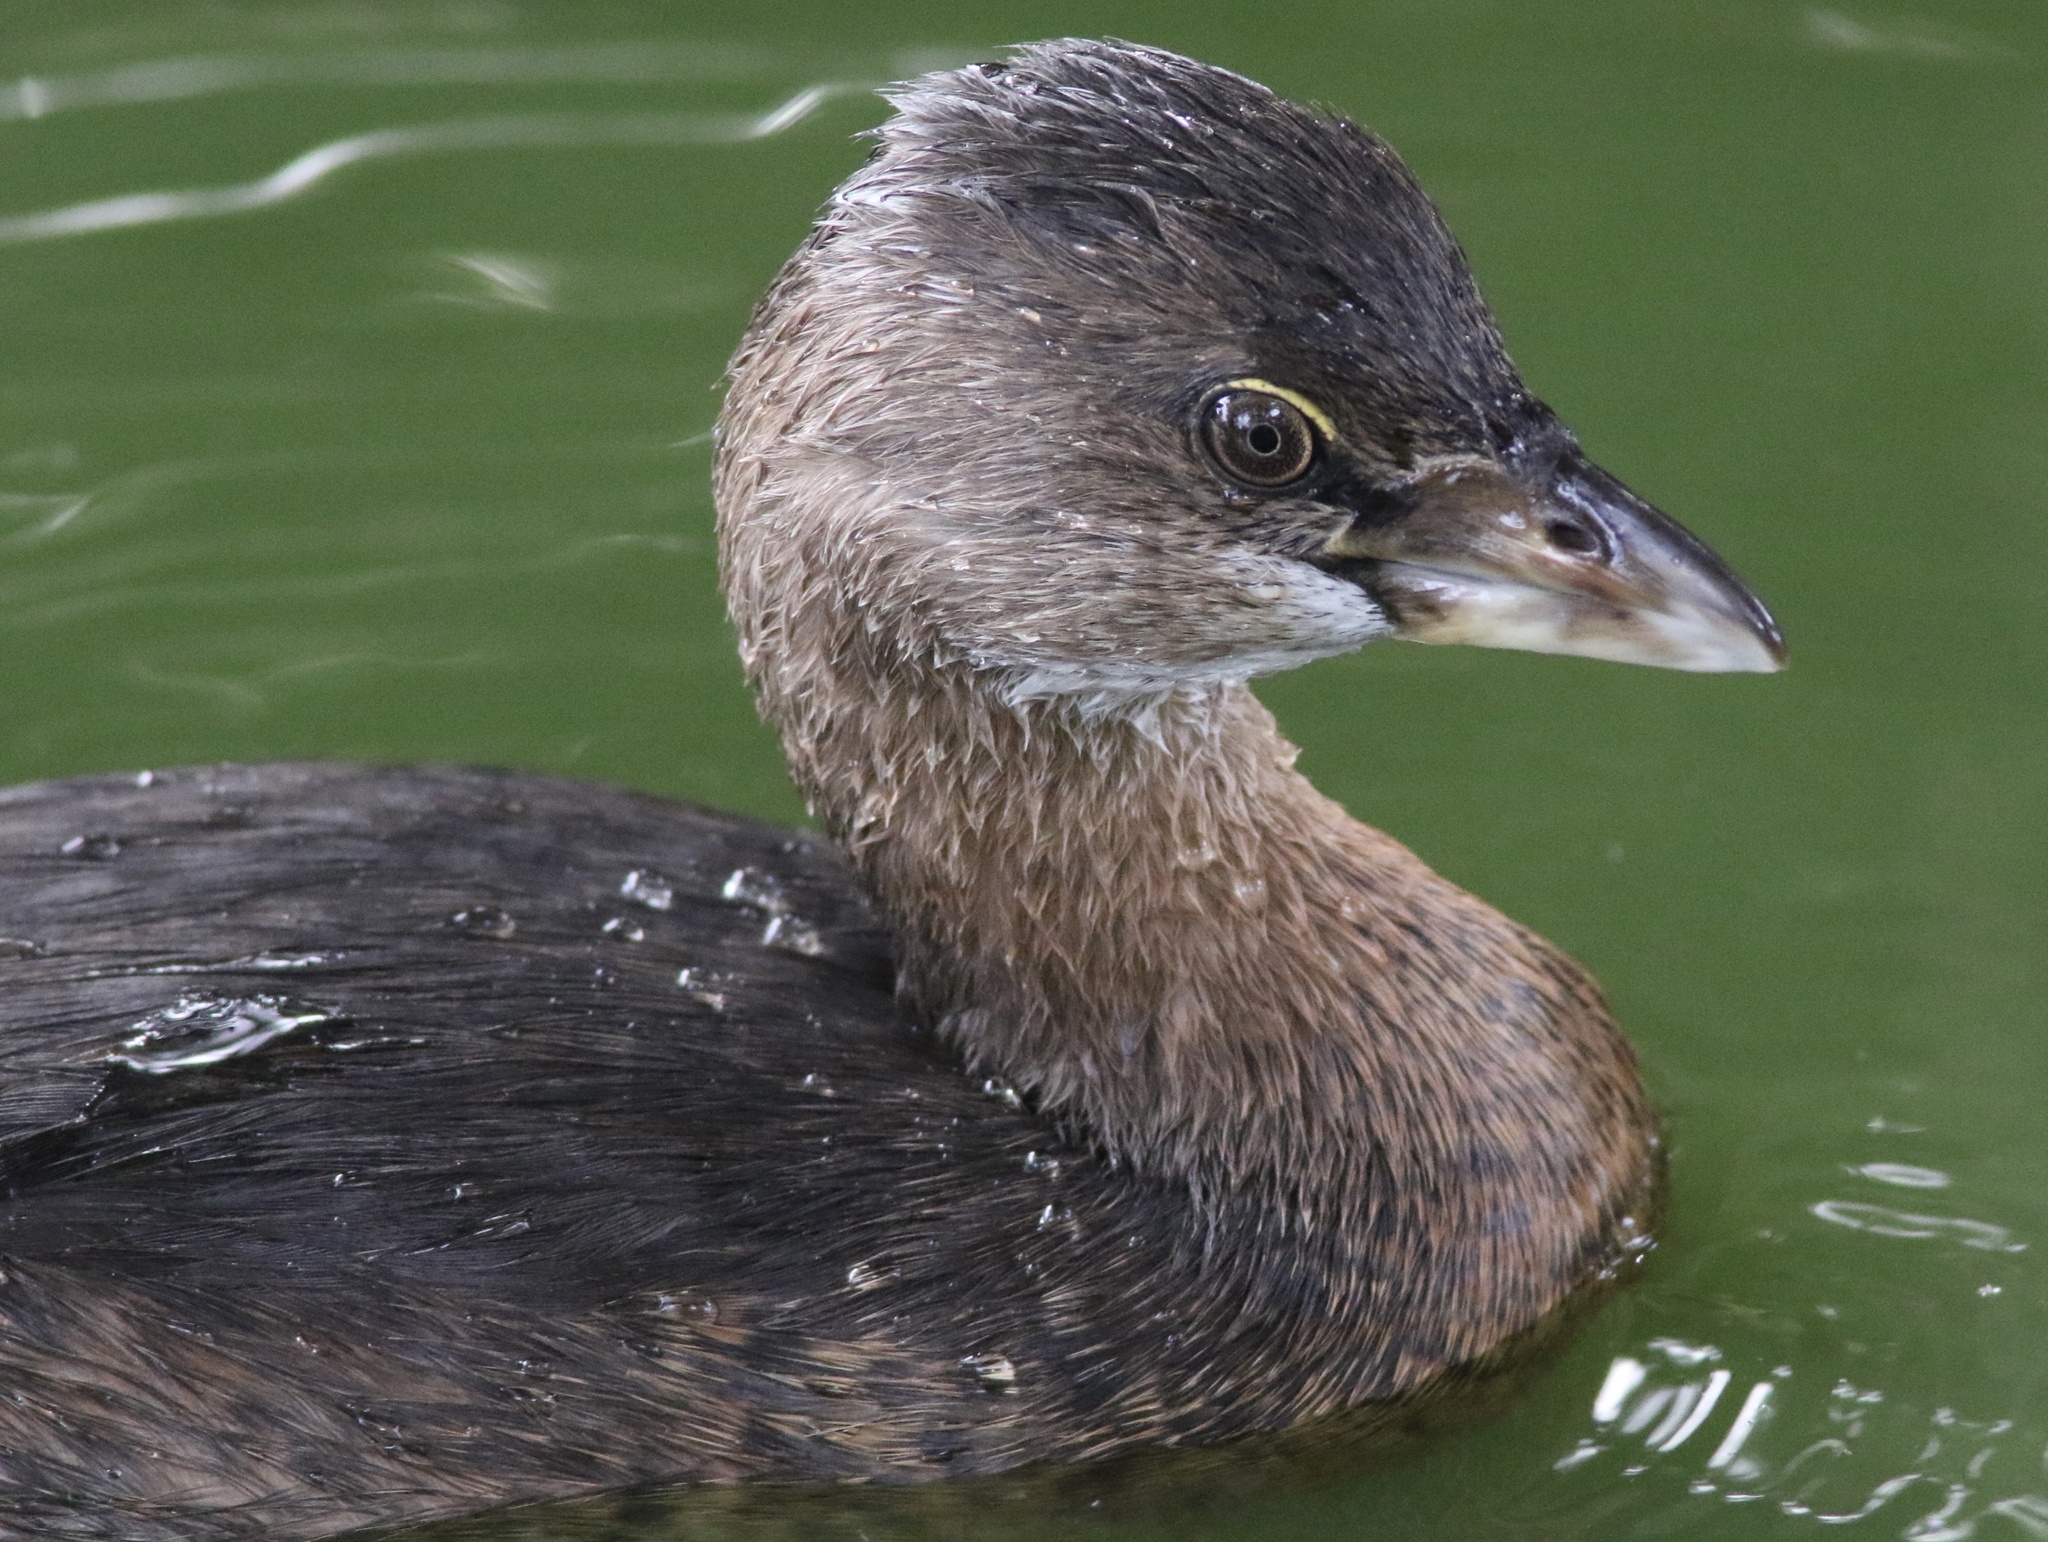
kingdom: Animalia
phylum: Chordata
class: Aves
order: Podicipediformes
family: Podicipedidae
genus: Podilymbus
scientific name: Podilymbus podiceps
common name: Pied-billed grebe
